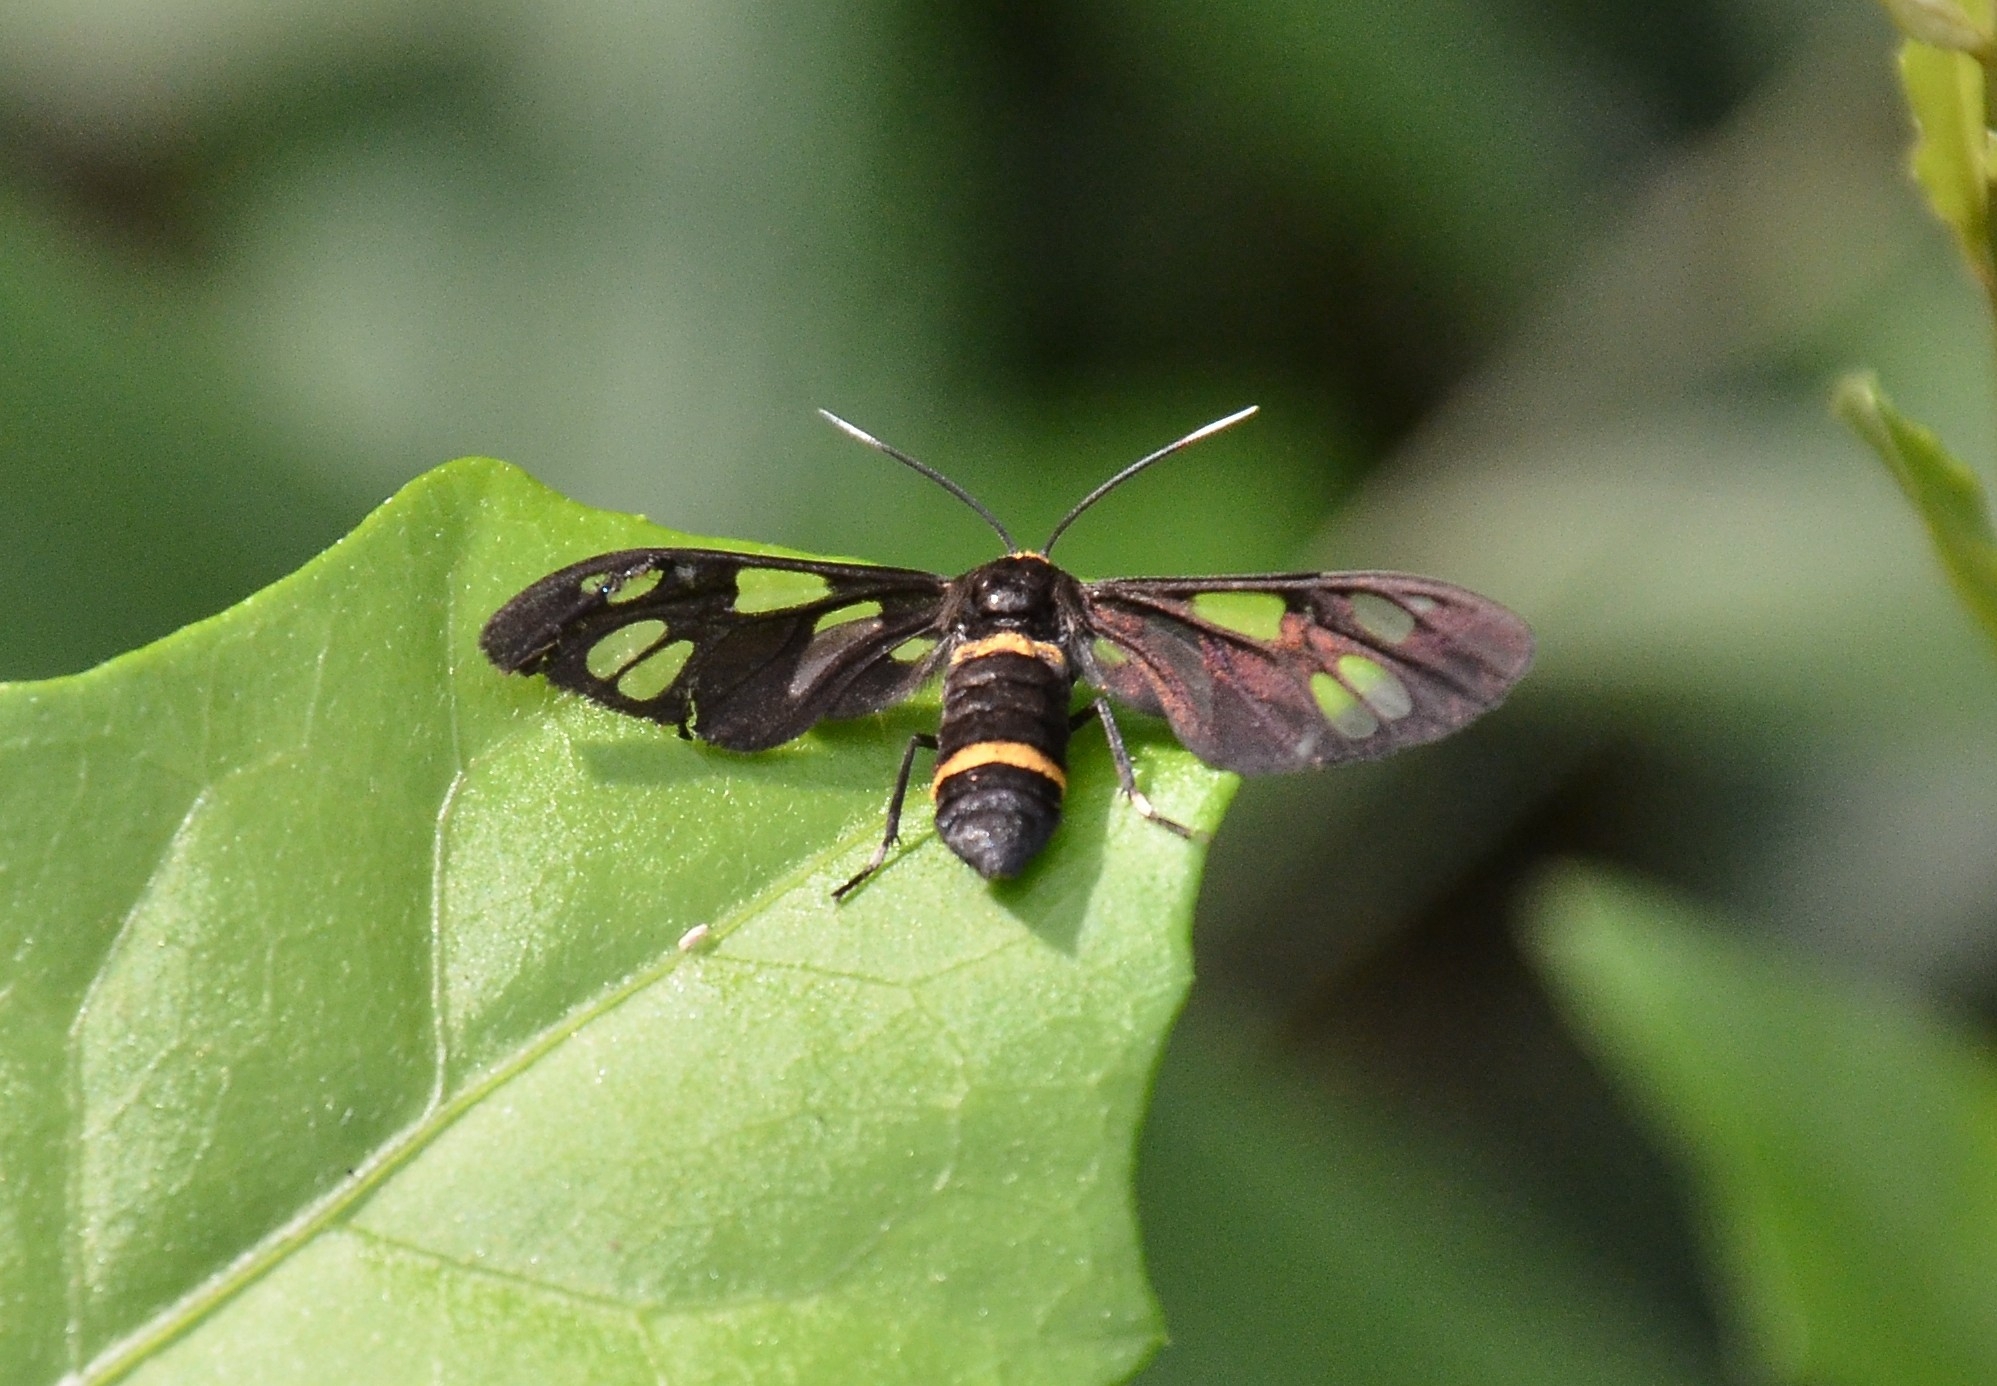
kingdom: Animalia
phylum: Arthropoda
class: Insecta
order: Lepidoptera
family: Erebidae
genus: Syntomoides
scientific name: Syntomoides imaon
